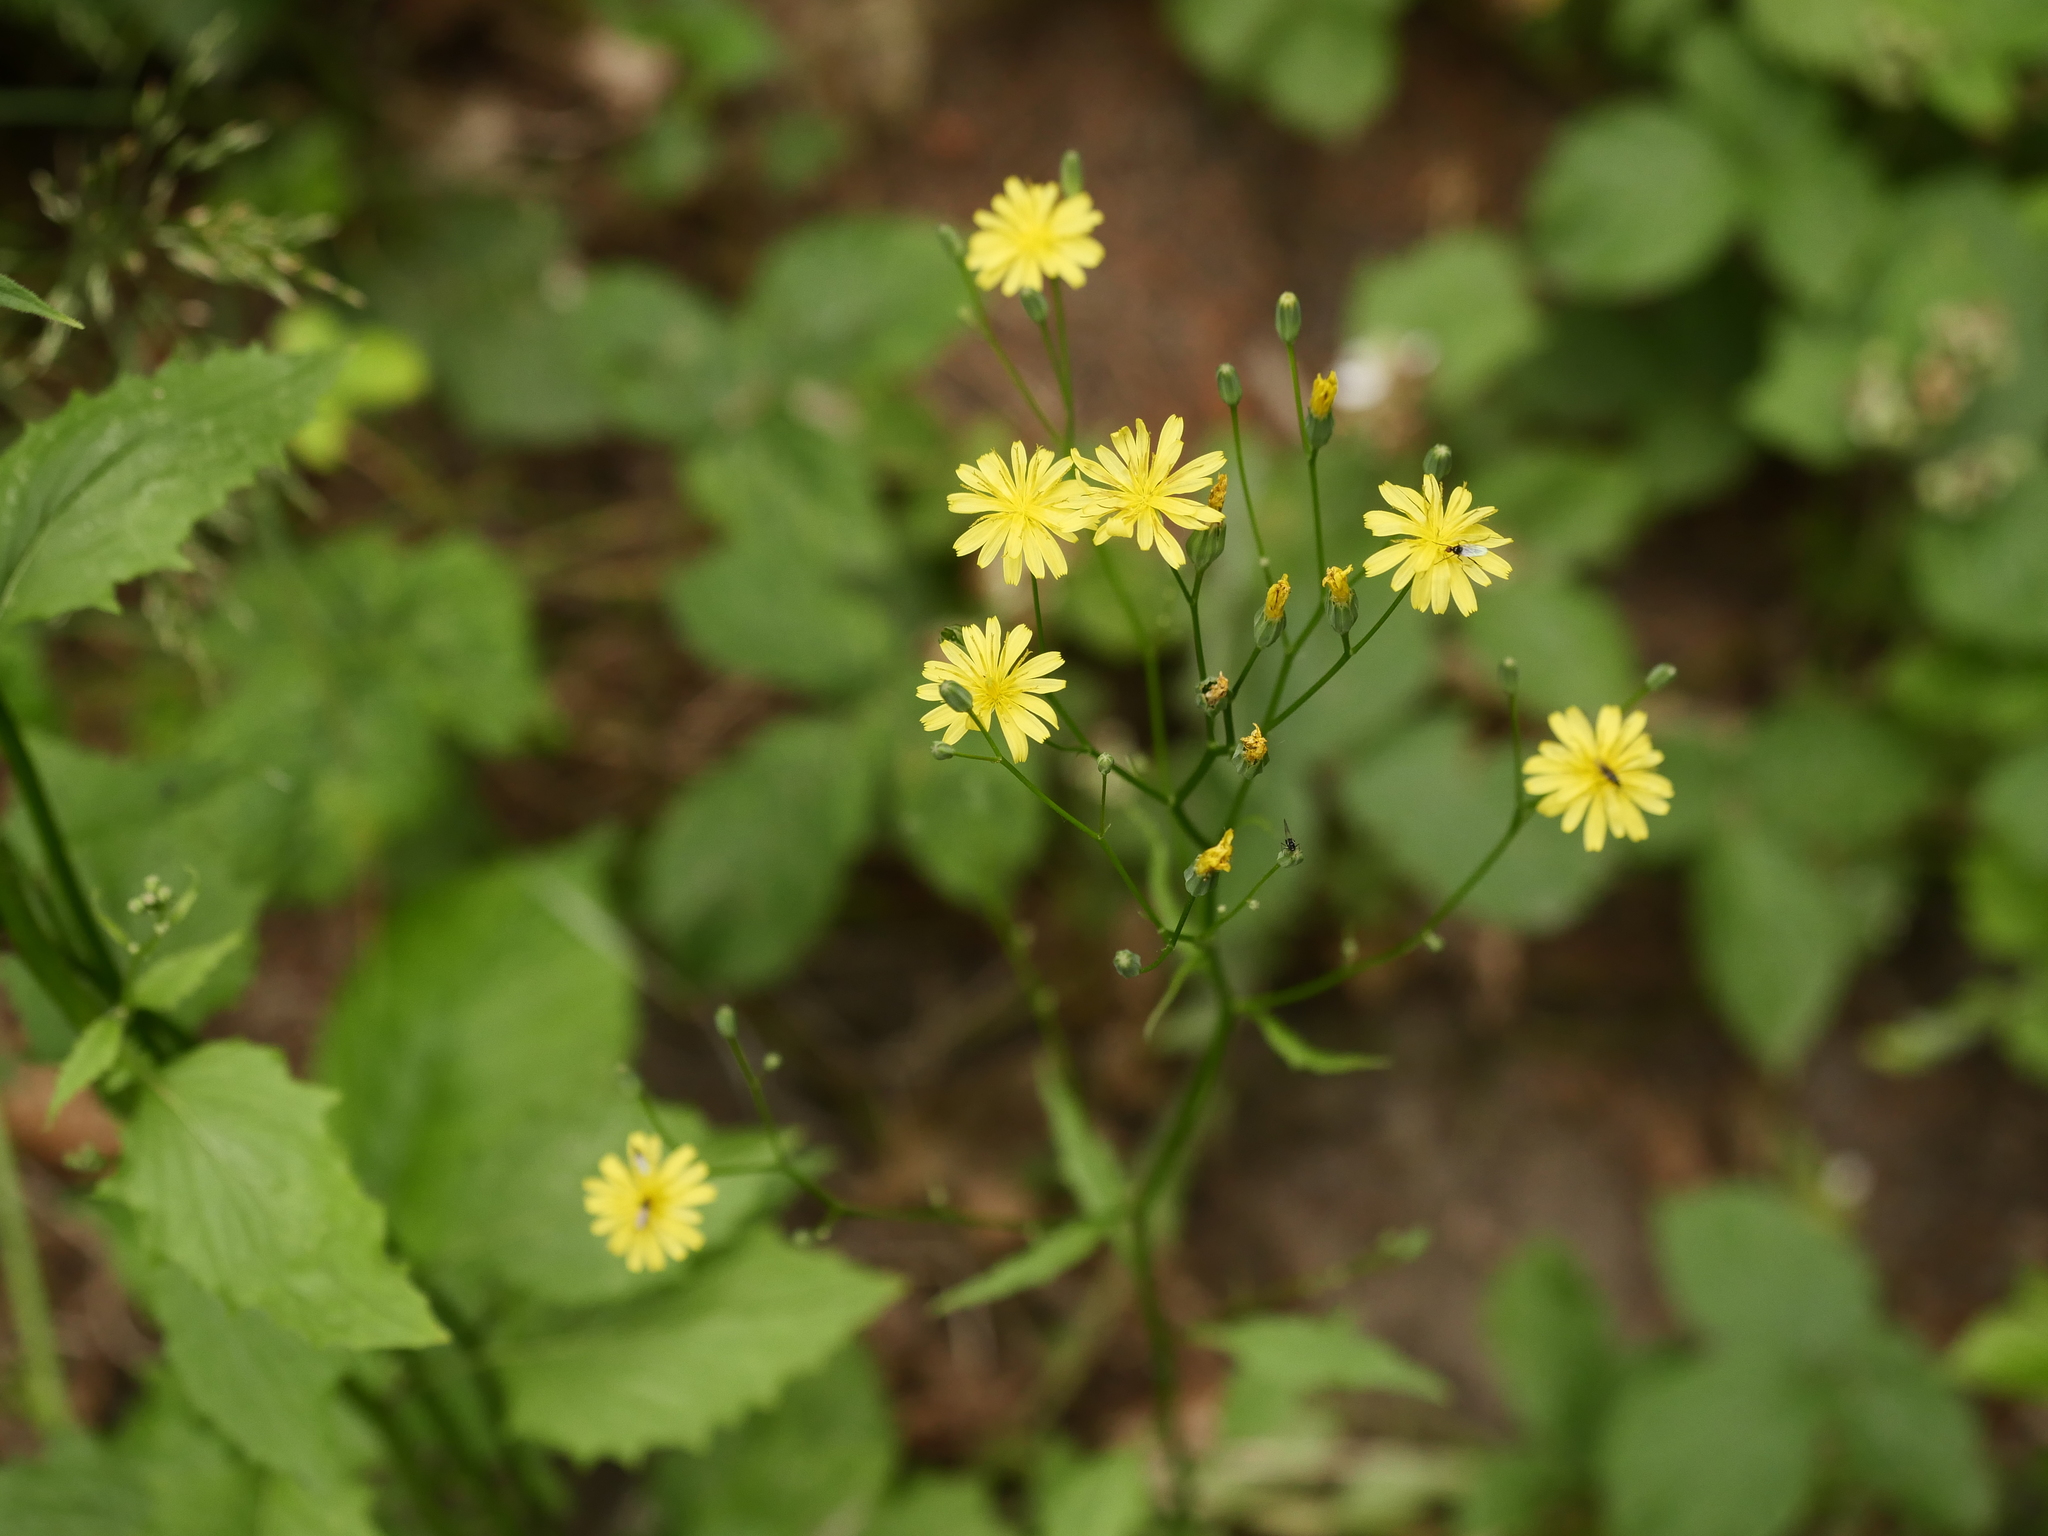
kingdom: Plantae
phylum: Tracheophyta
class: Magnoliopsida
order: Asterales
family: Asteraceae
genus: Lapsana
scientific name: Lapsana communis
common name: Nipplewort
